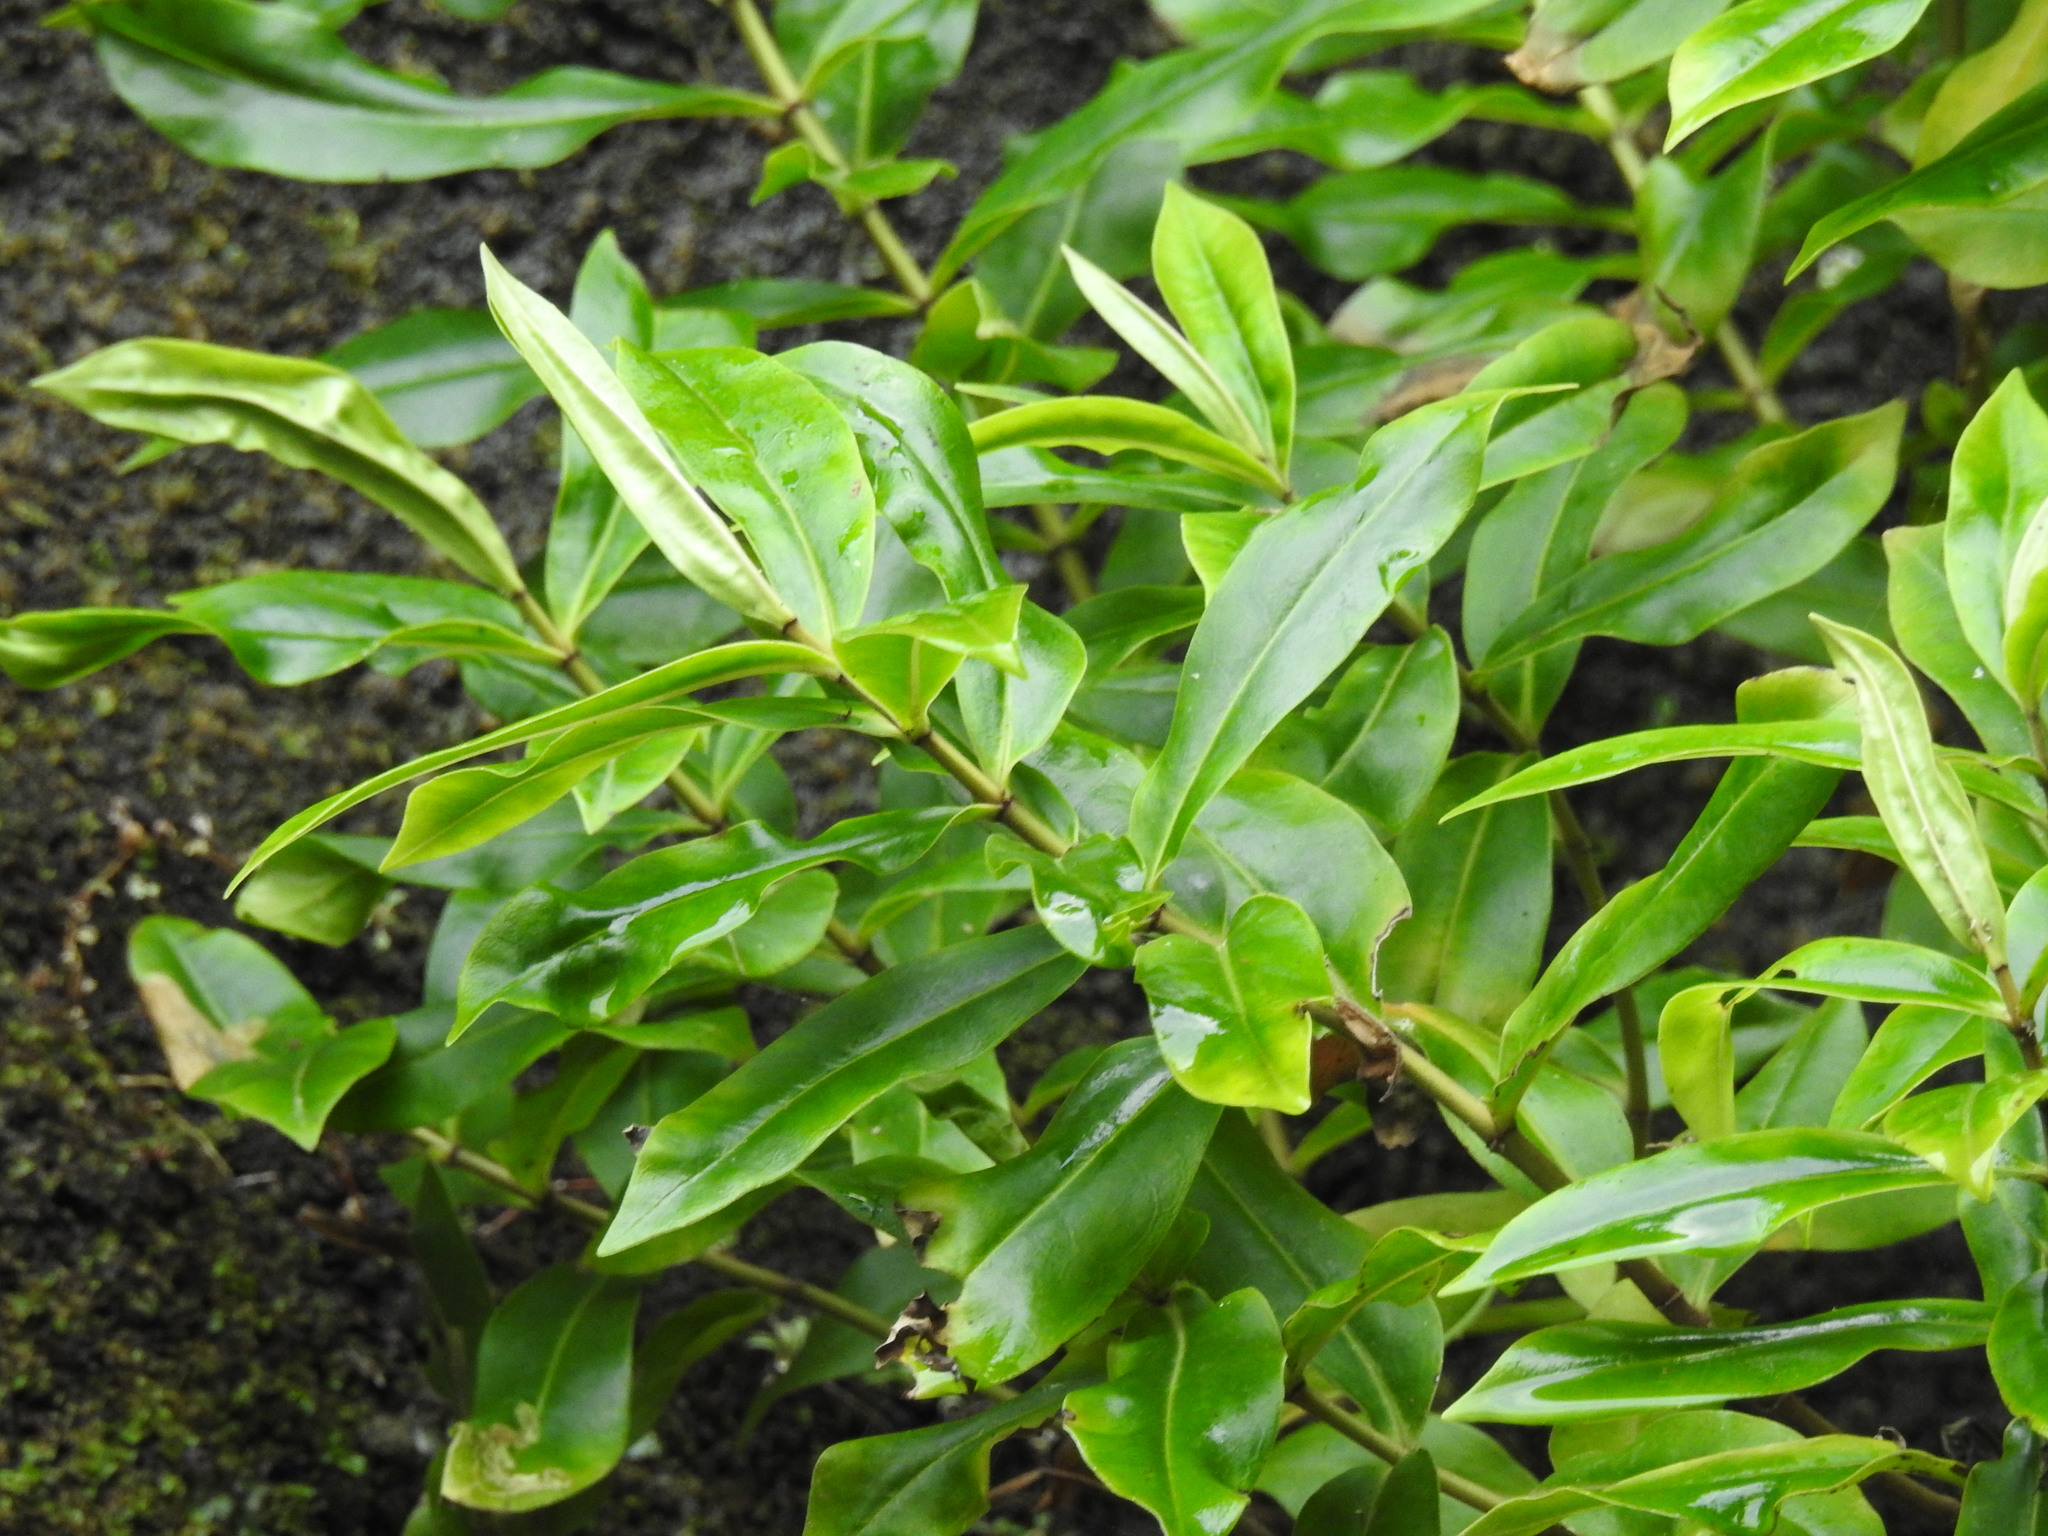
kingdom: Plantae
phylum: Tracheophyta
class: Magnoliopsida
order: Lamiales
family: Plantaginaceae
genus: Veronica
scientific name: Veronica stricta
